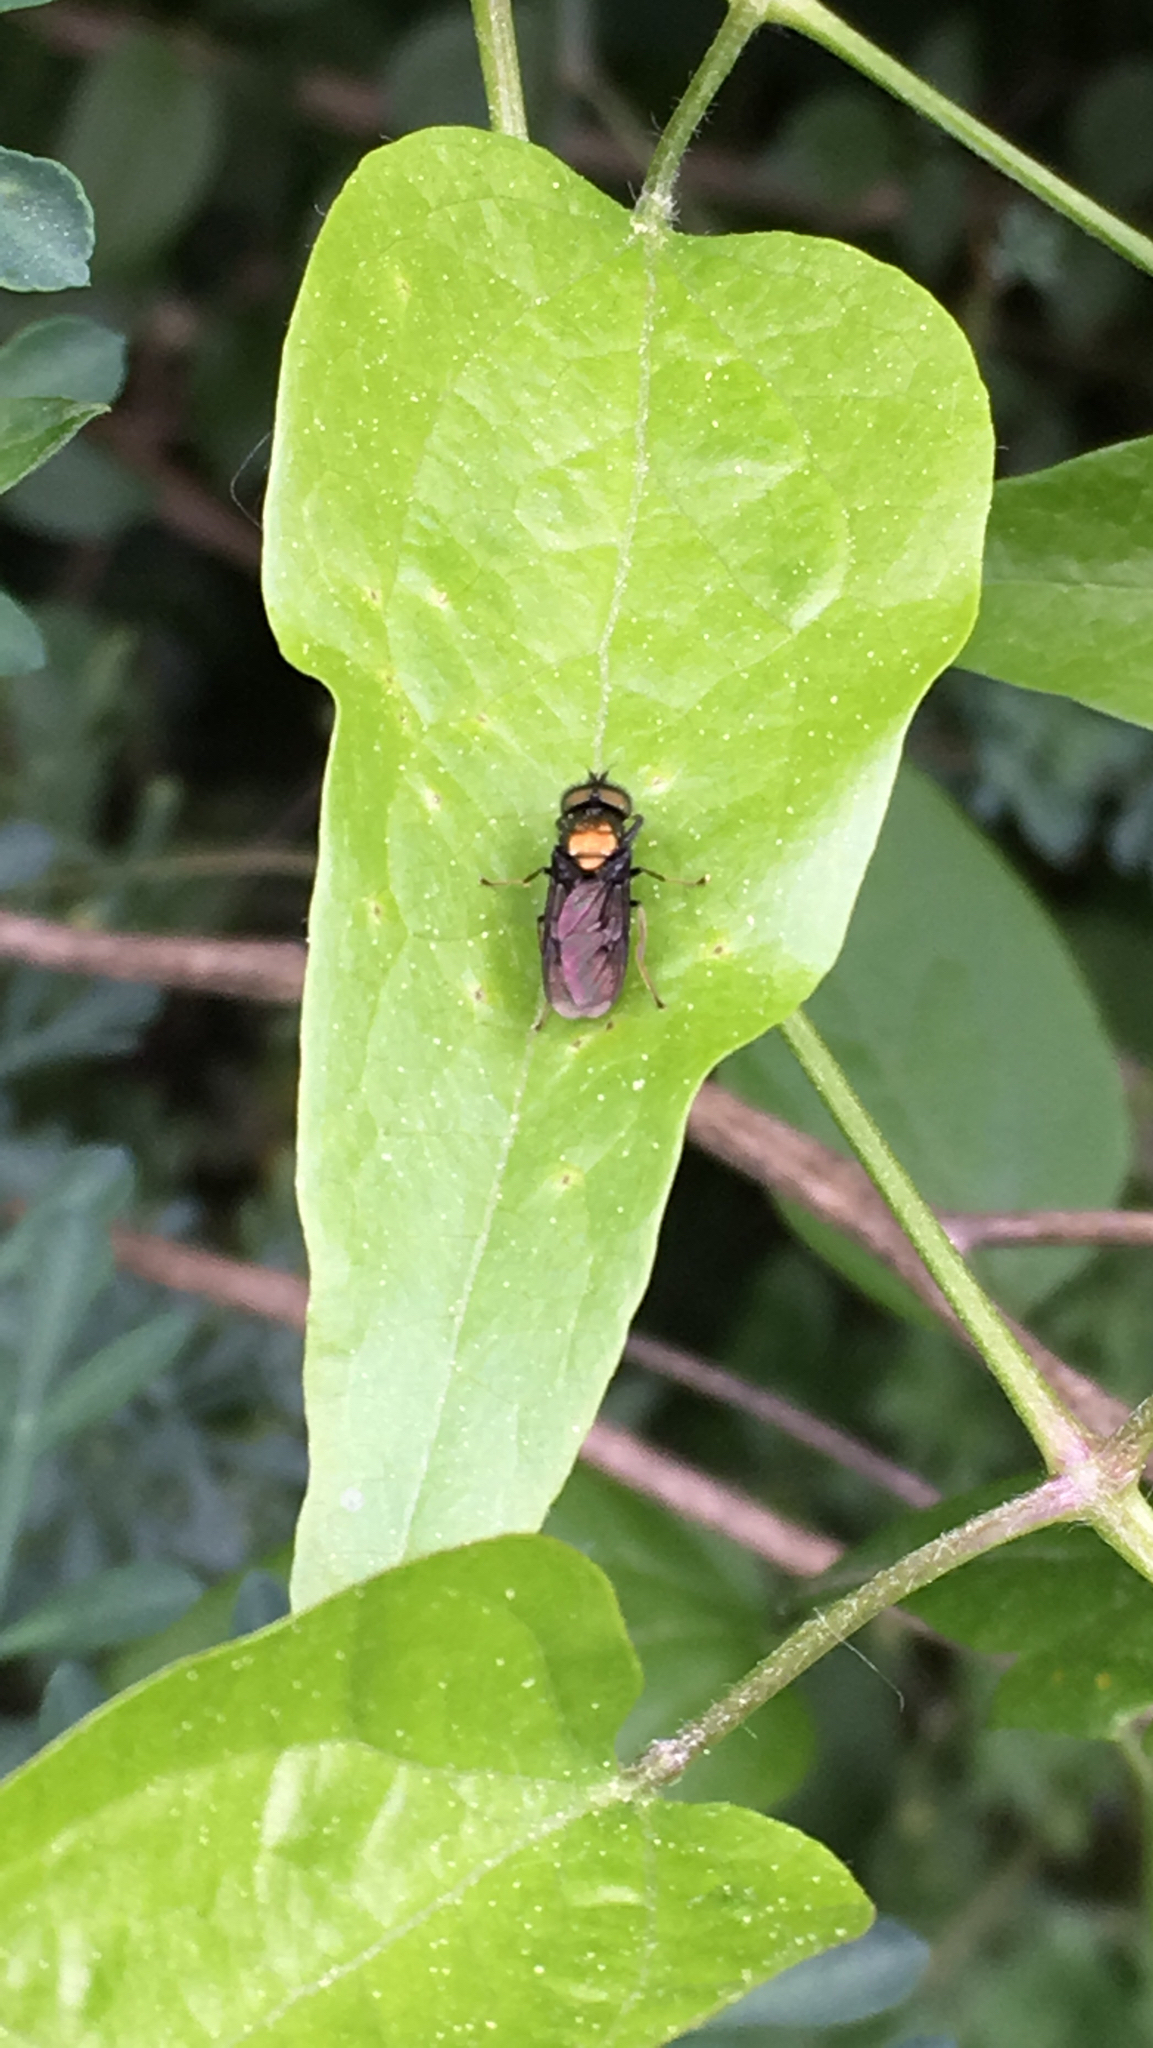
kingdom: Animalia
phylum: Arthropoda
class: Insecta
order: Diptera
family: Stratiomyidae
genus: Chloromyia
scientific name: Chloromyia speciosa
